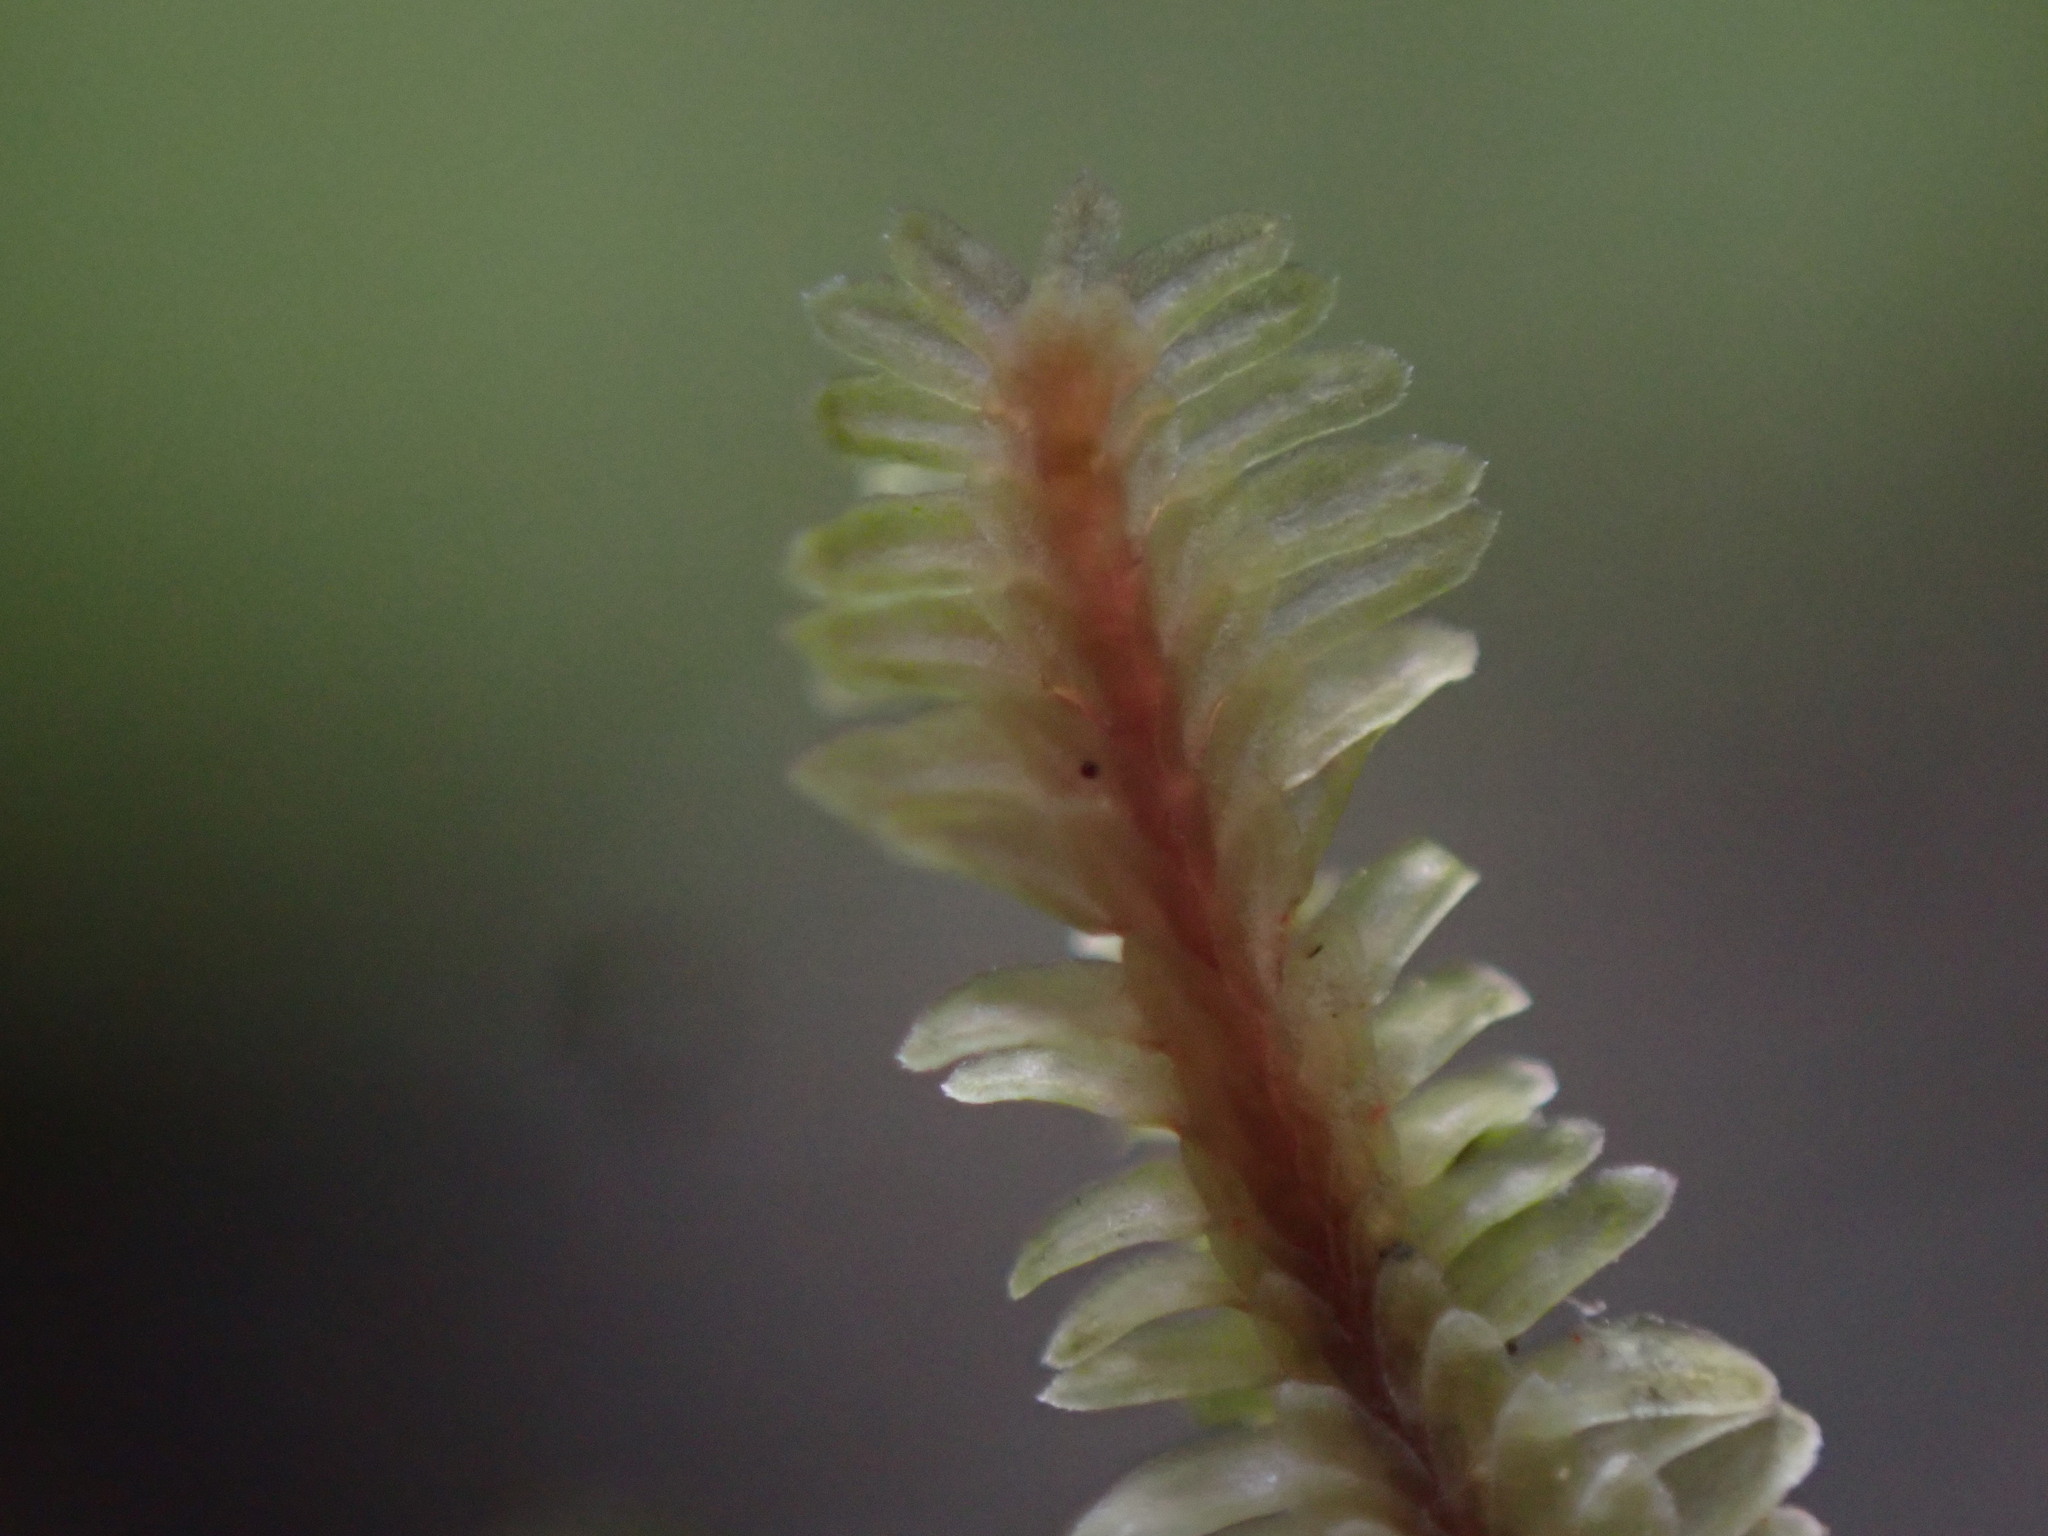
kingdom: Plantae
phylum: Marchantiophyta
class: Jungermanniopsida
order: Jungermanniales
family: Scapaniaceae
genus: Diplophyllum
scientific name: Diplophyllum albicans
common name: White earwort
